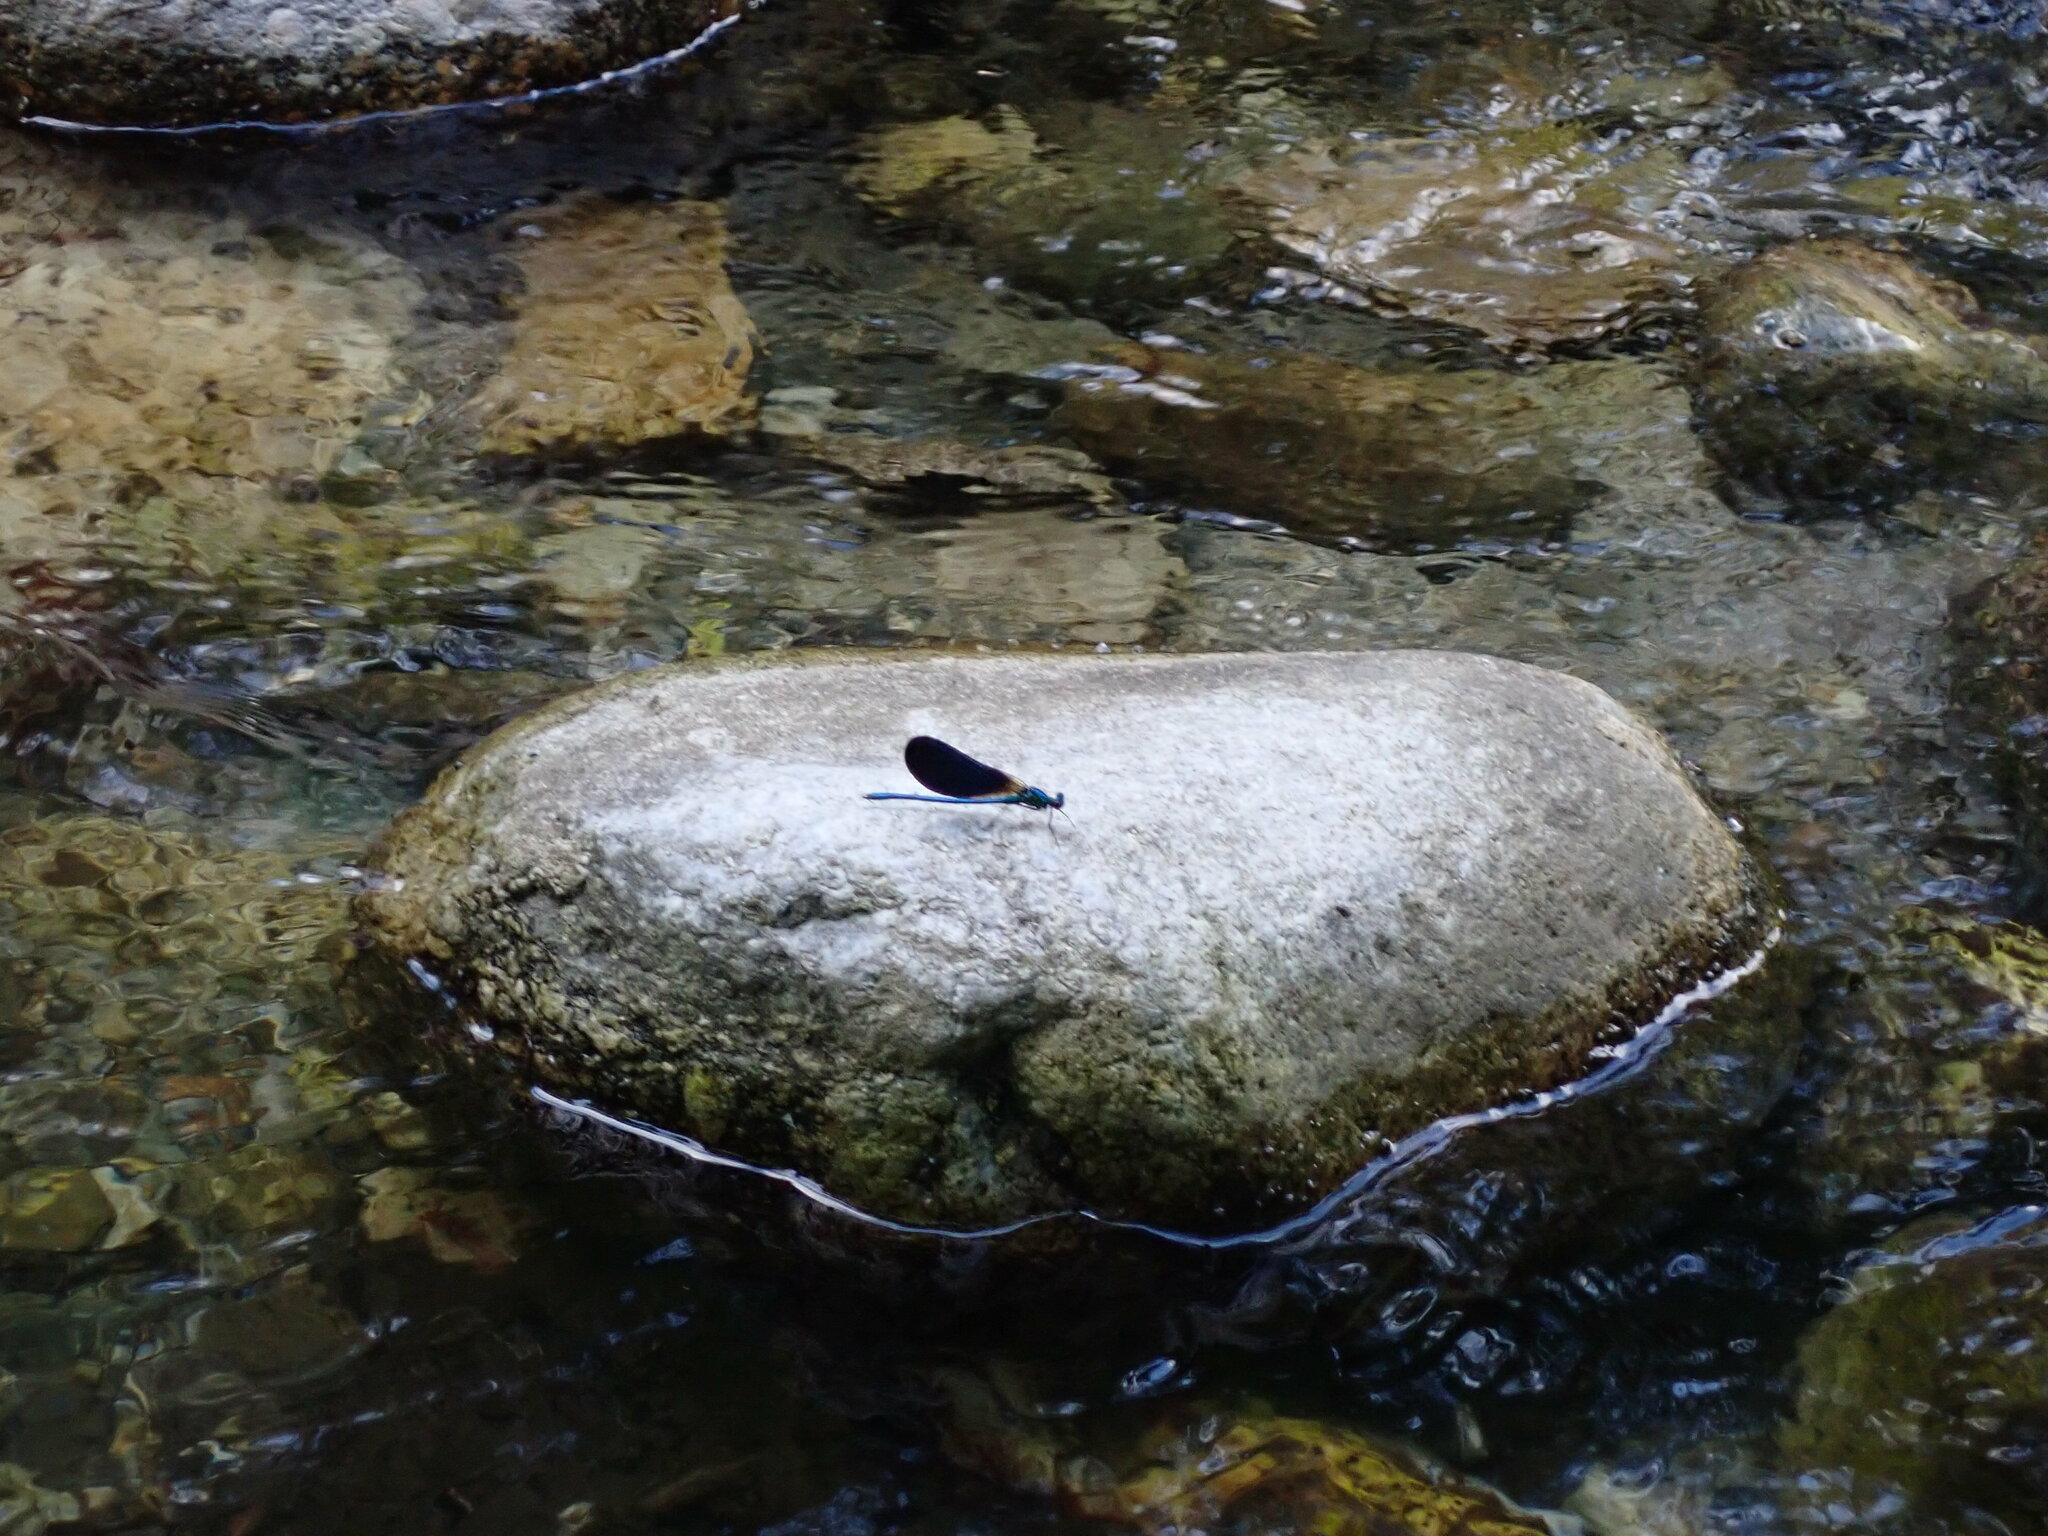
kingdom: Animalia
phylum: Arthropoda
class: Insecta
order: Odonata
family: Calopterygidae
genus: Calopteryx
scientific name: Calopteryx virgo
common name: Beautiful demoiselle
